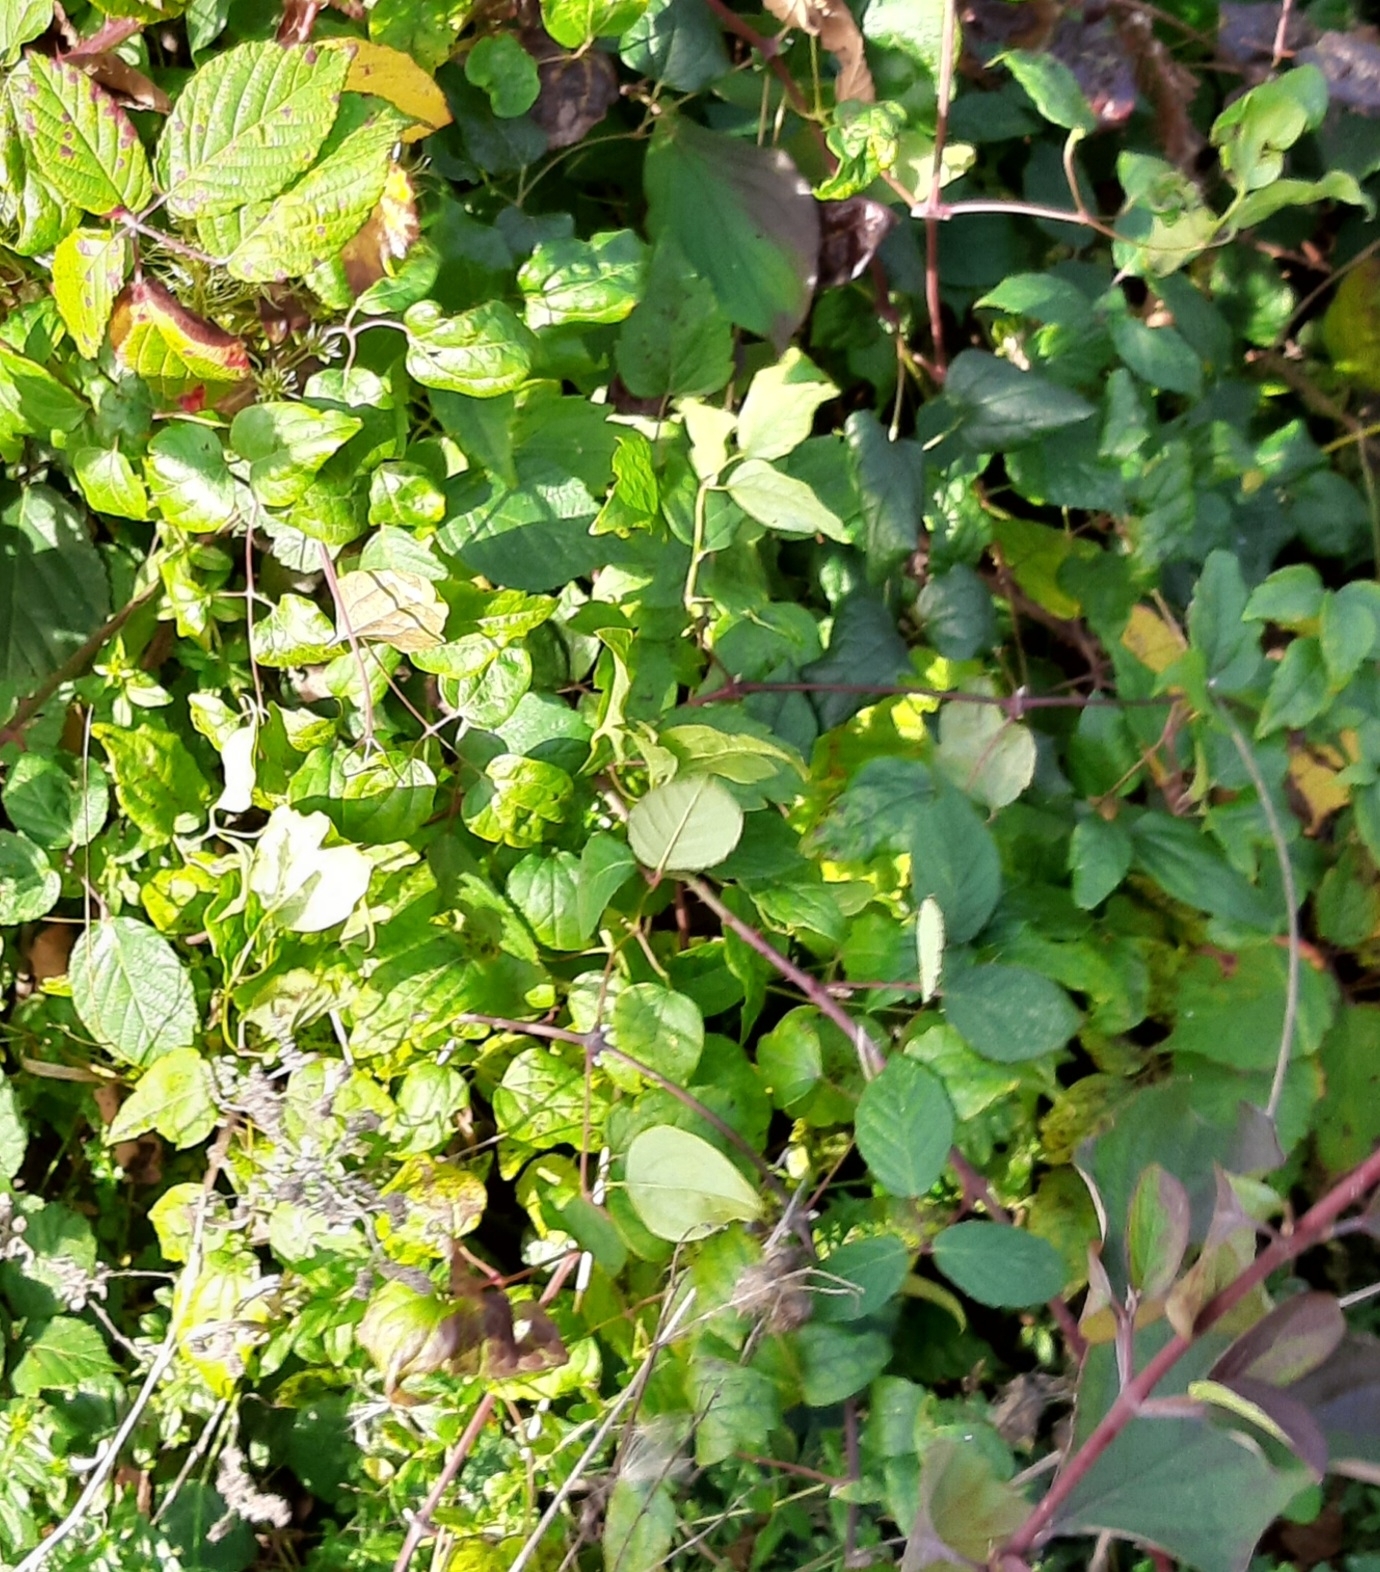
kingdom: Plantae
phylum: Tracheophyta
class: Magnoliopsida
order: Ranunculales
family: Ranunculaceae
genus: Clematis
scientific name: Clematis vitalba
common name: Evergreen clematis
